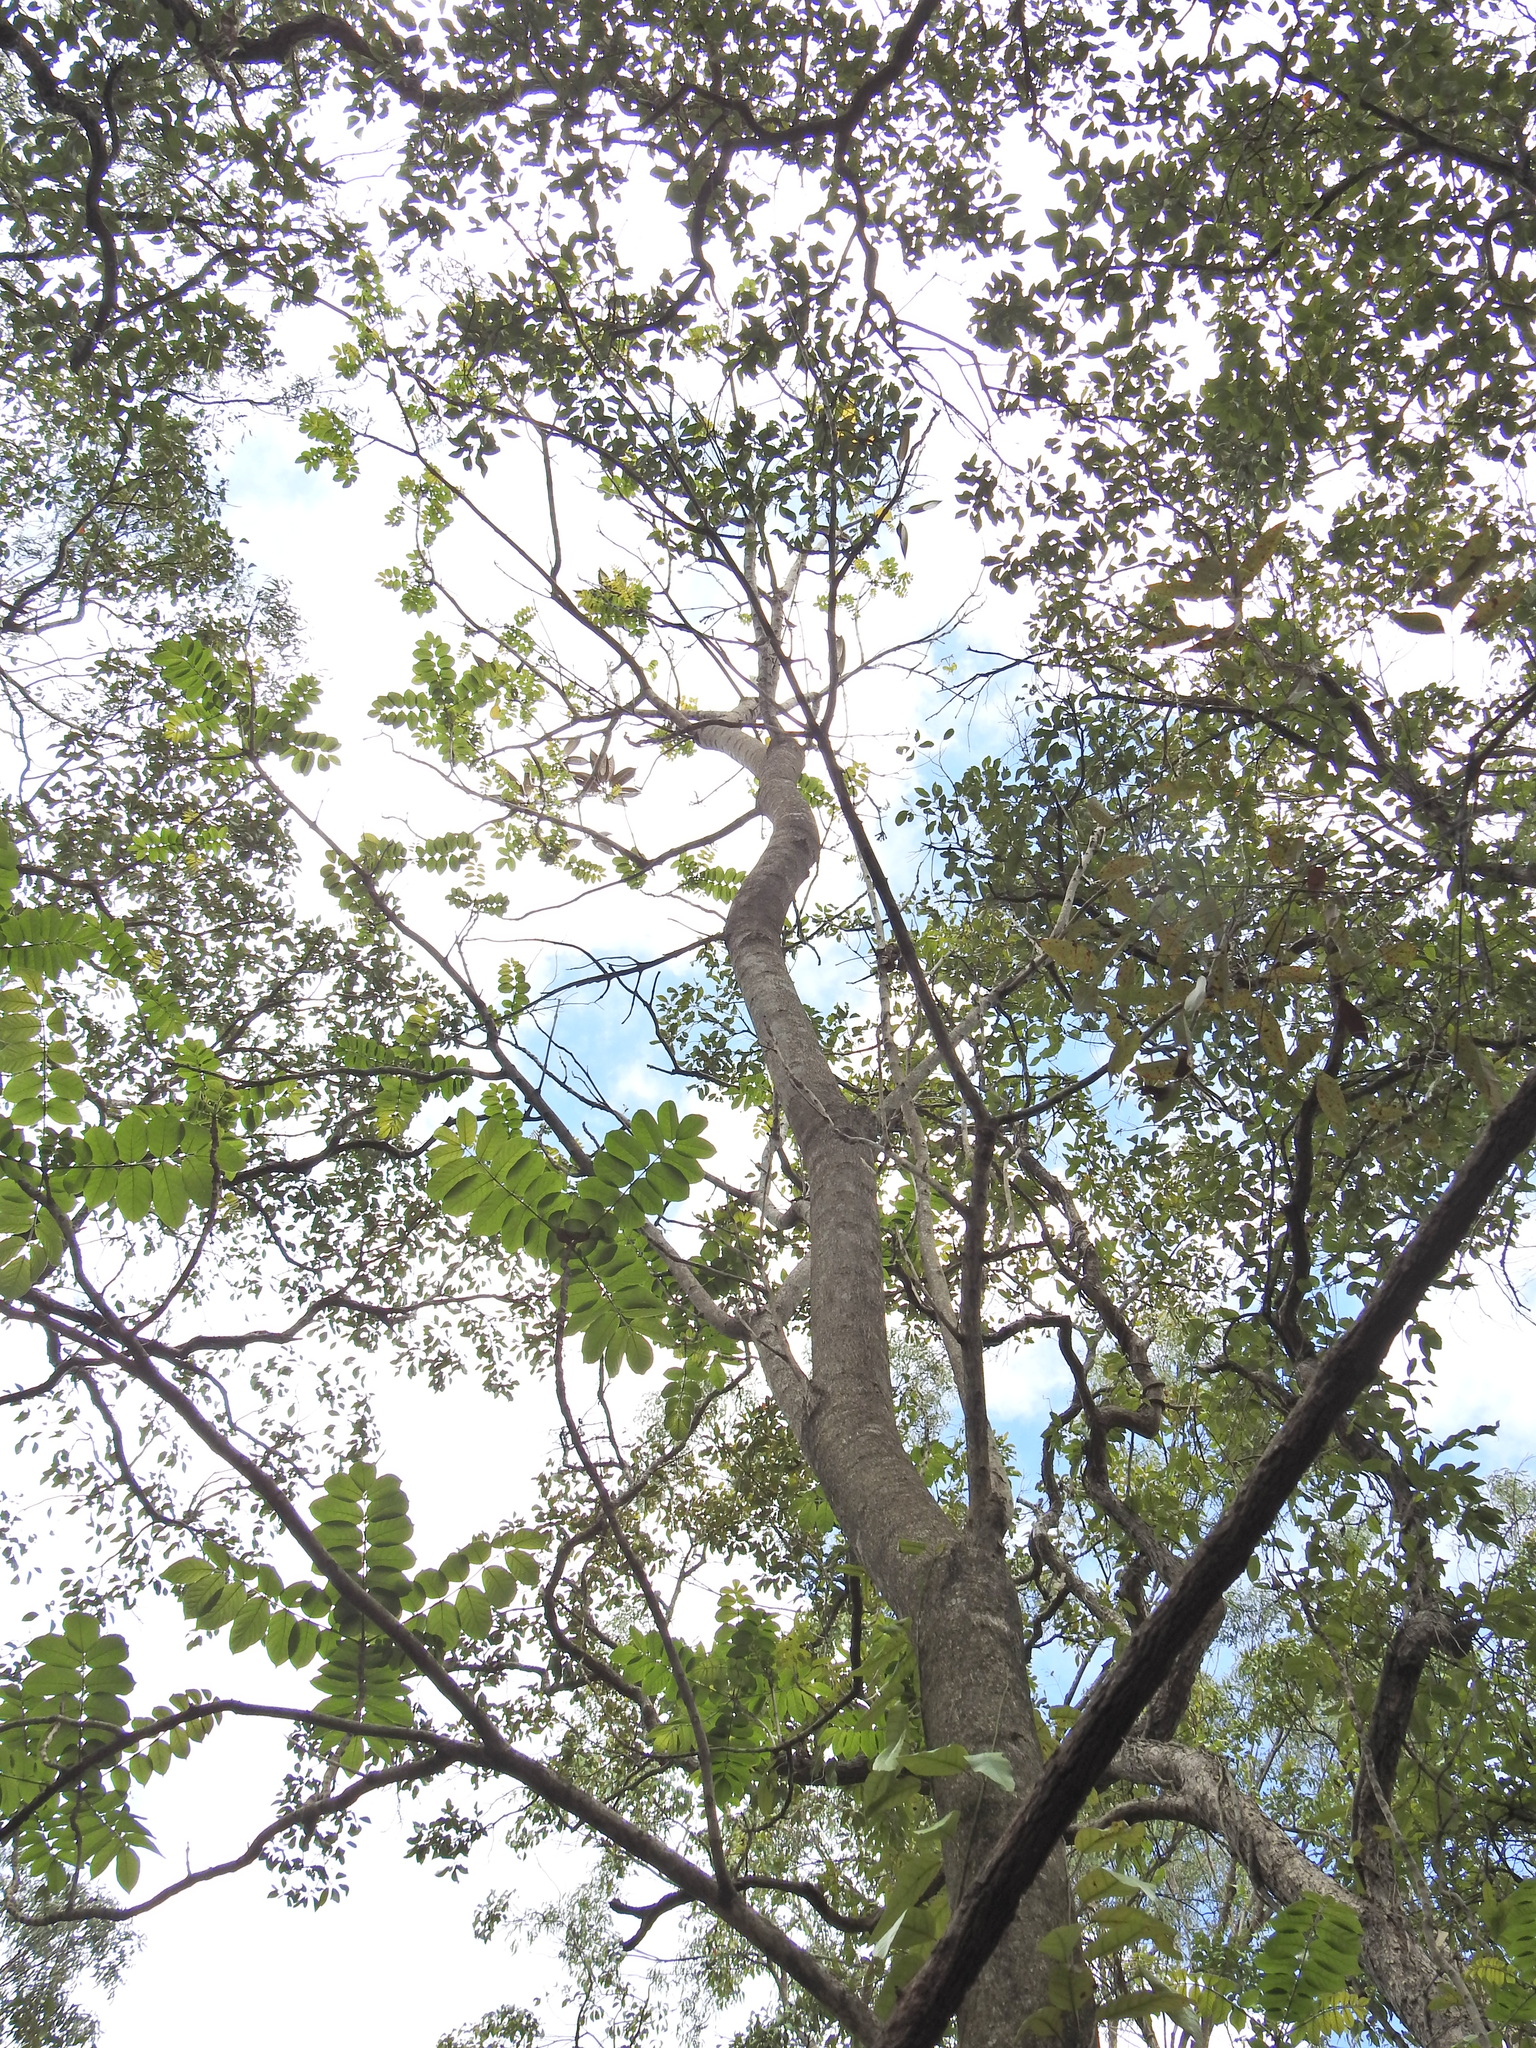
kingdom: Plantae
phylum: Tracheophyta
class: Magnoliopsida
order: Lamiales
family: Bignoniaceae
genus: Spathodea
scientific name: Spathodea campanulata
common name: African tuliptree
